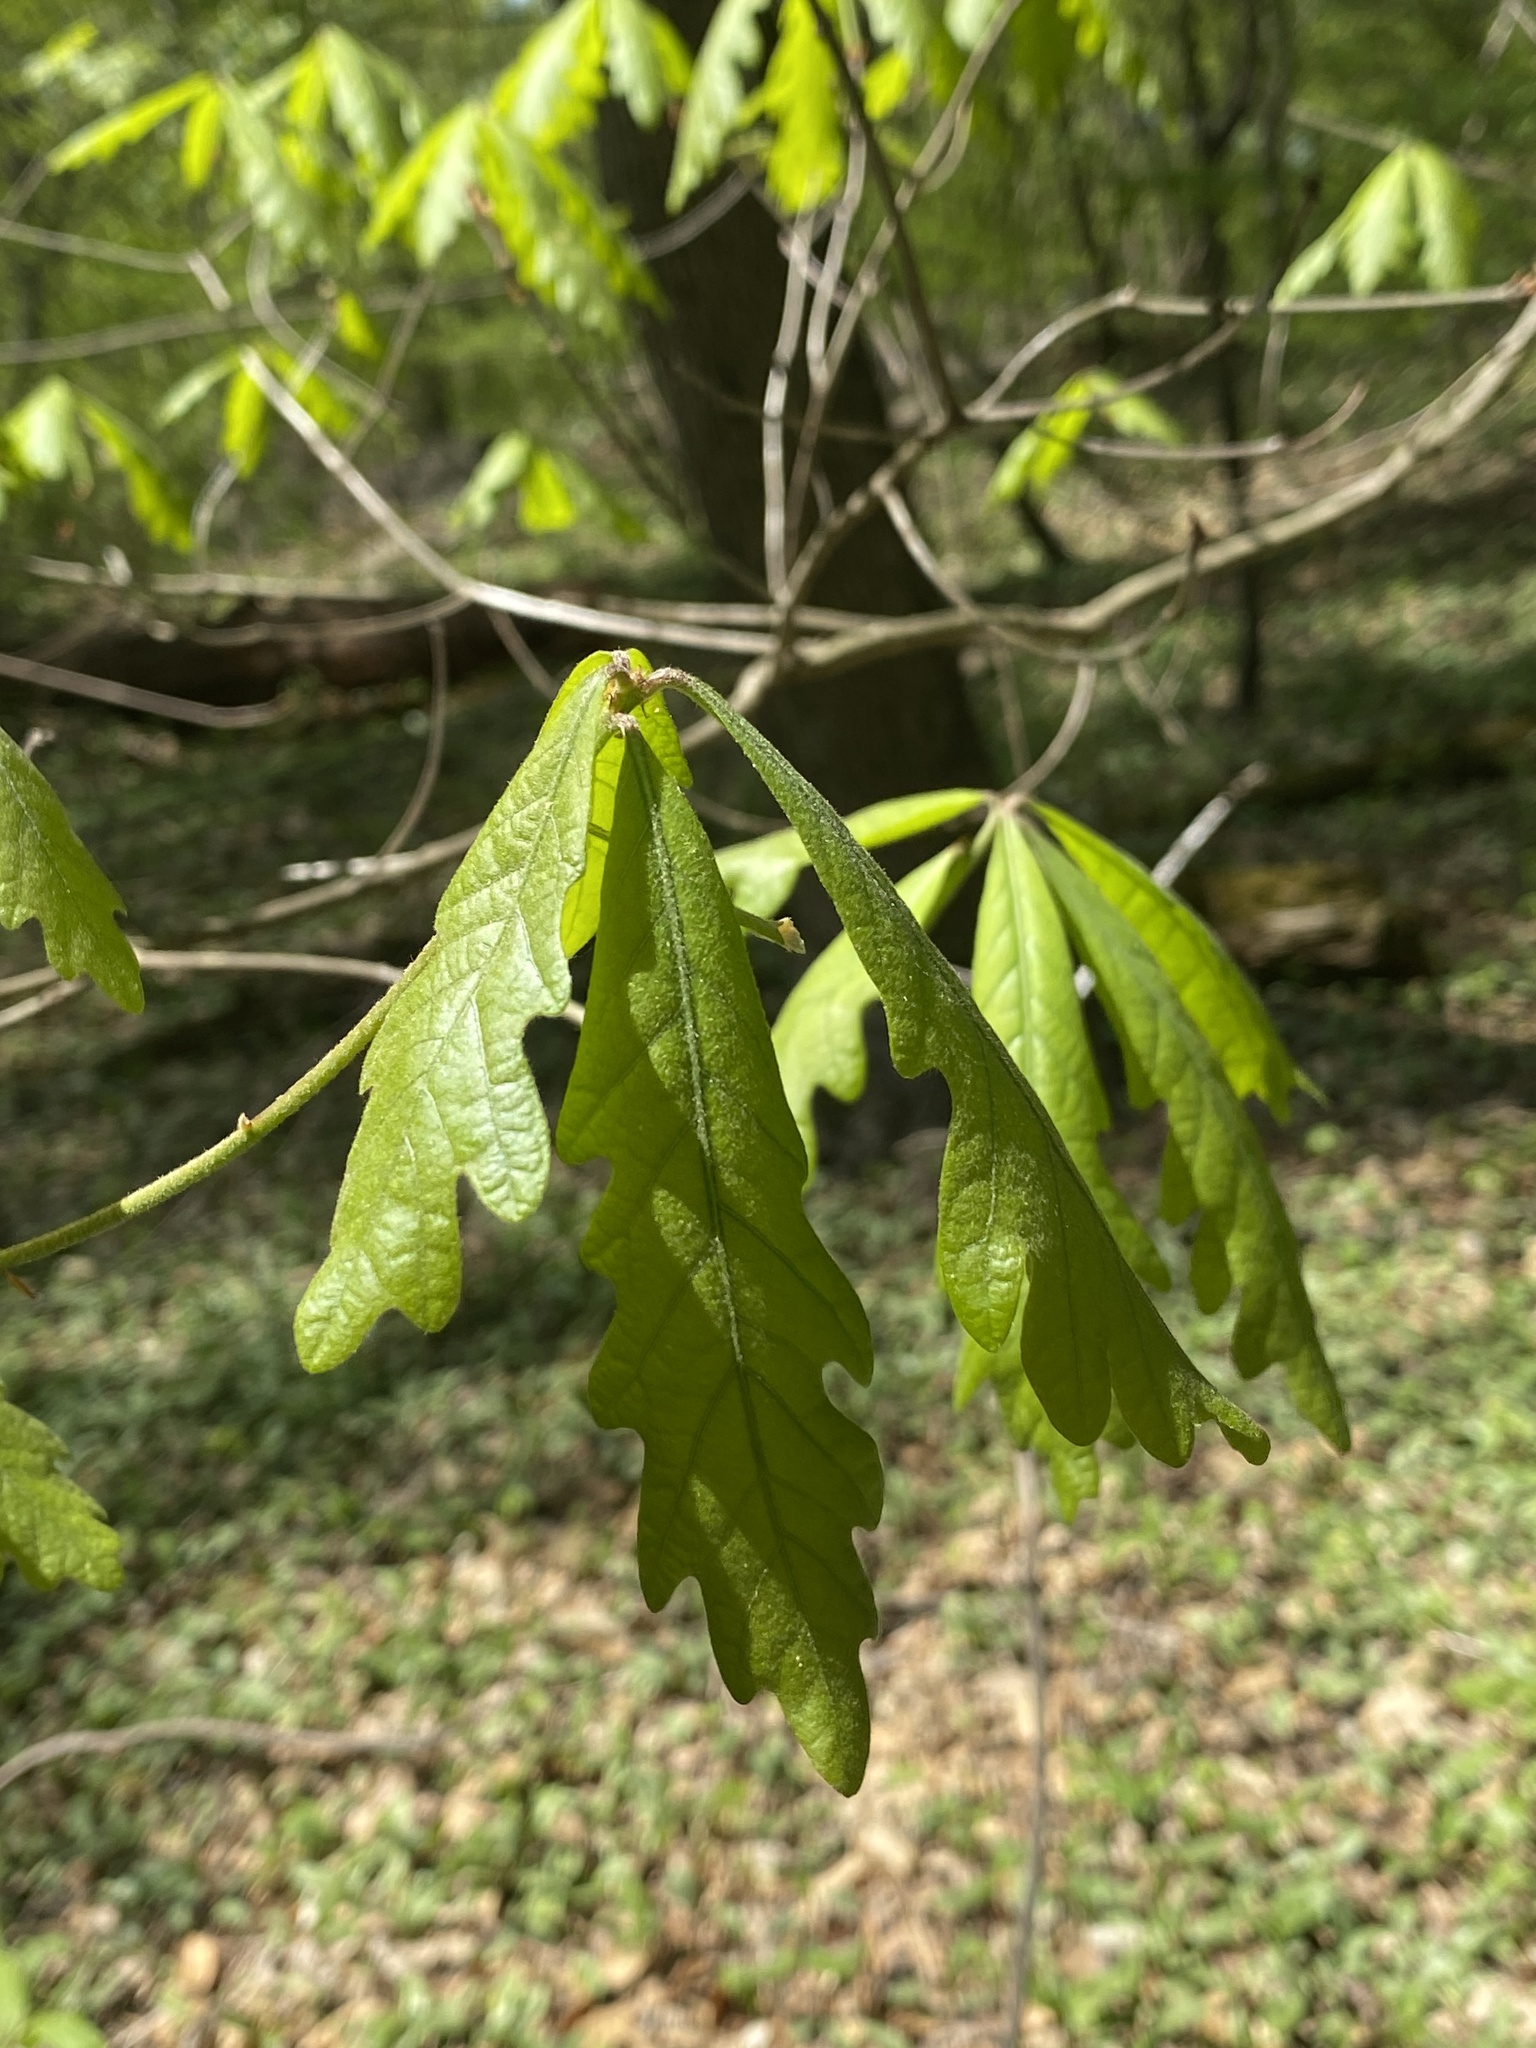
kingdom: Plantae
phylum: Tracheophyta
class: Magnoliopsida
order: Fagales
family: Fagaceae
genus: Quercus
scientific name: Quercus alba
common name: White oak
